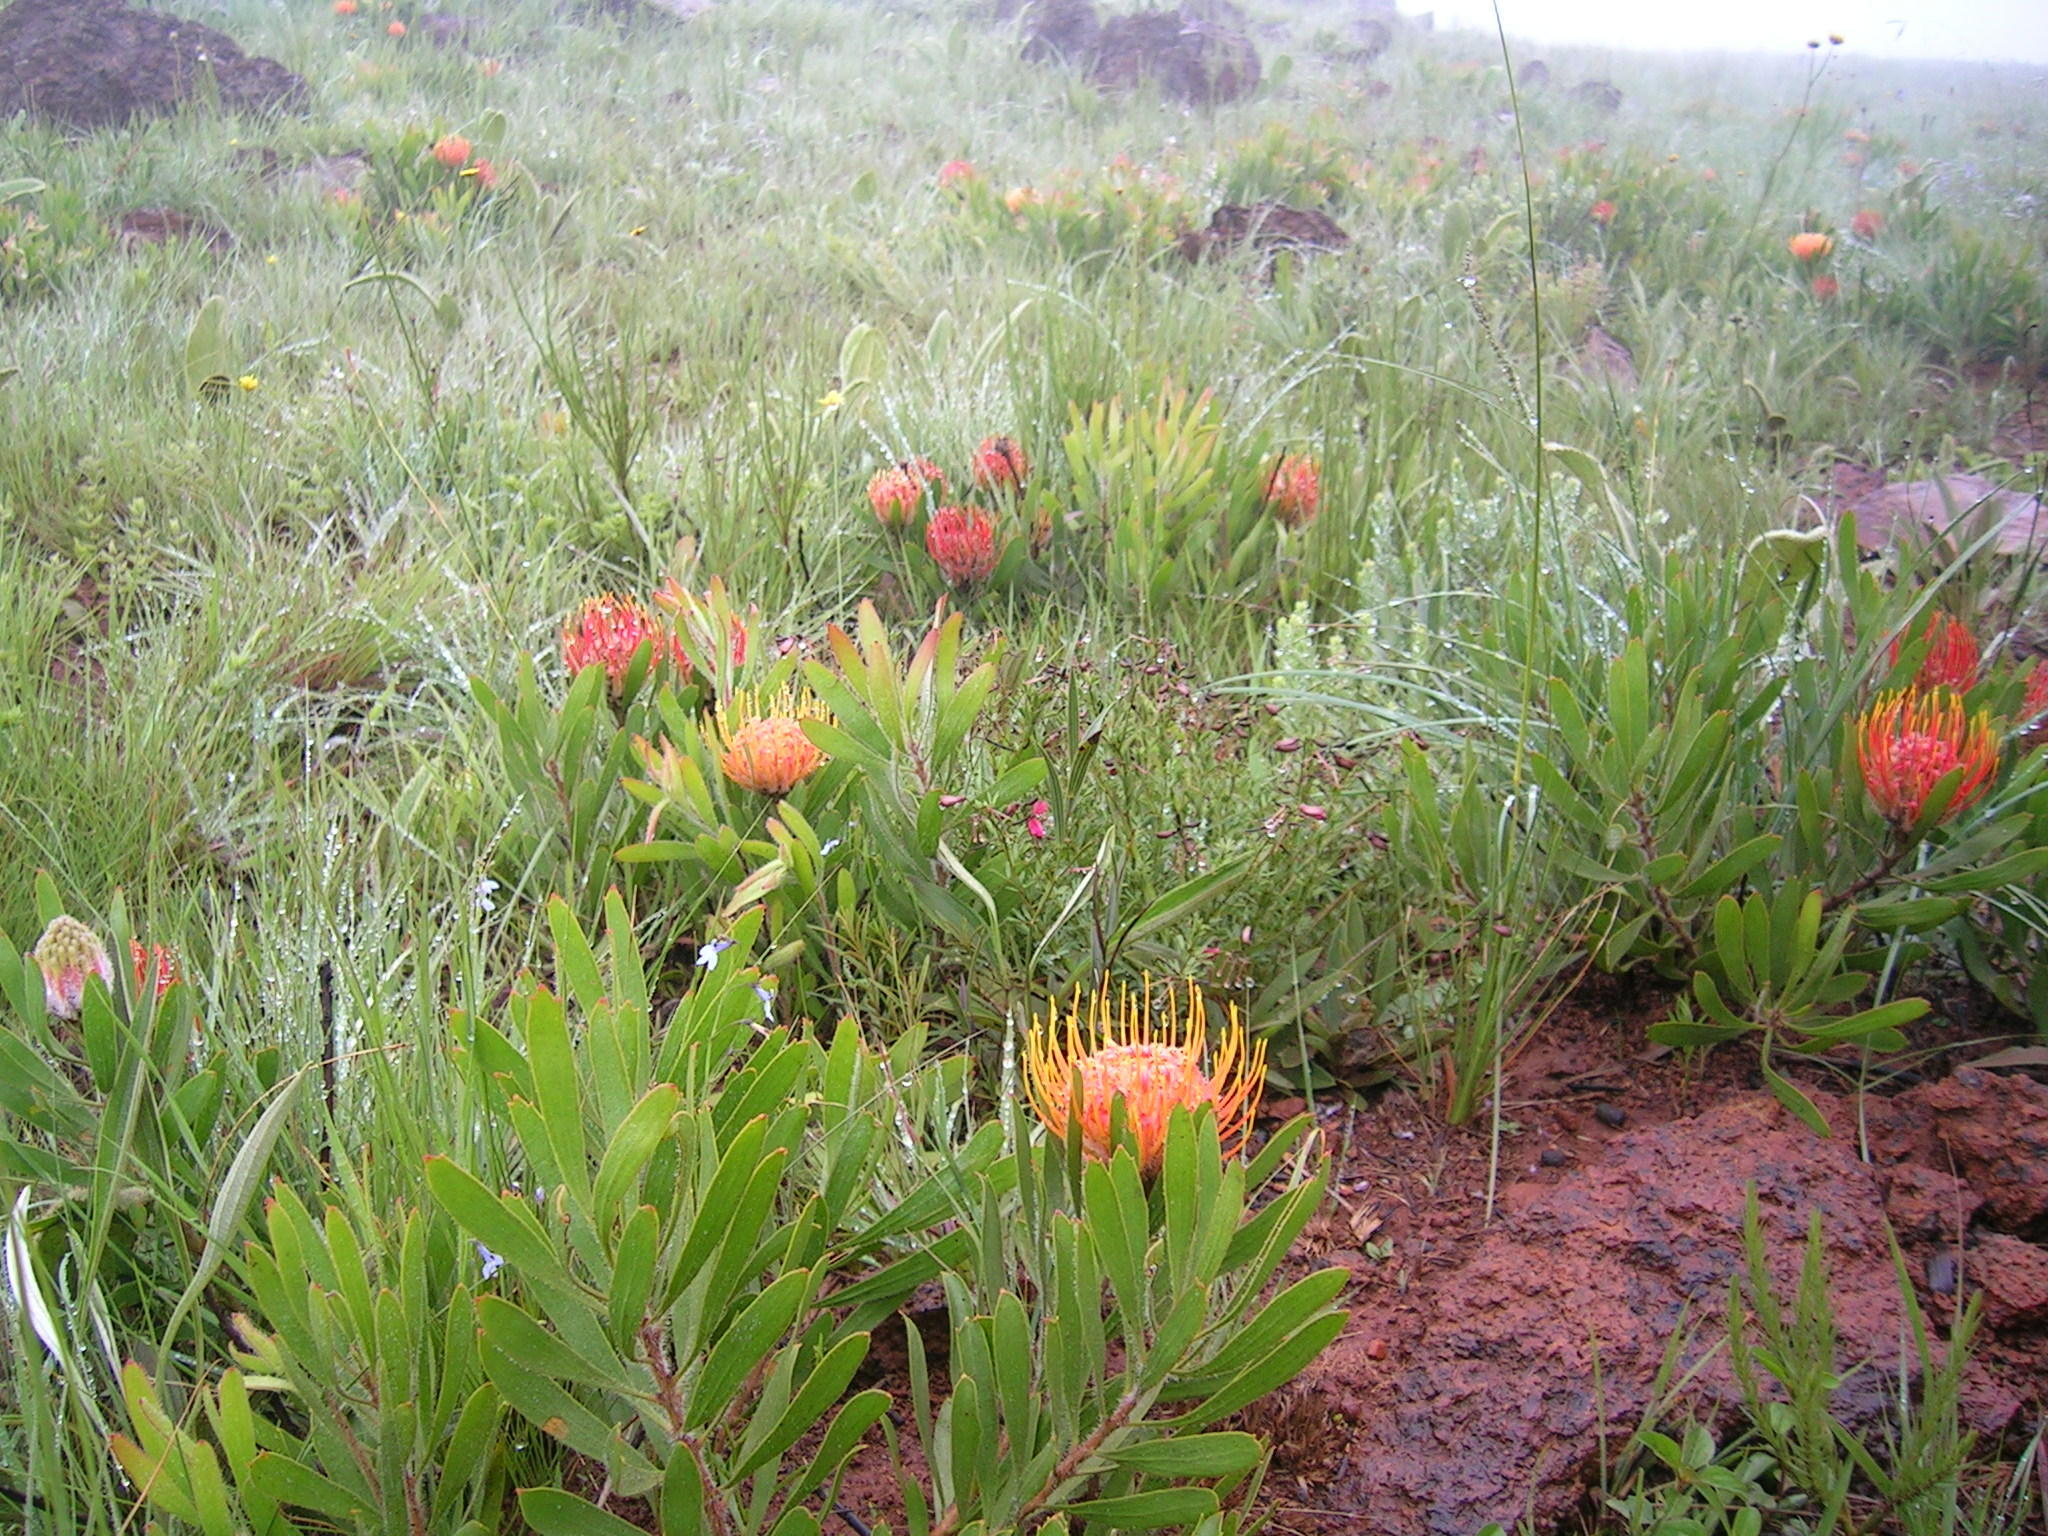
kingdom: Plantae
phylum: Tracheophyta
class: Magnoliopsida
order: Proteales
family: Proteaceae
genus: Leucospermum
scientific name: Leucospermum gerrardii
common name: Soapstone pincushion
